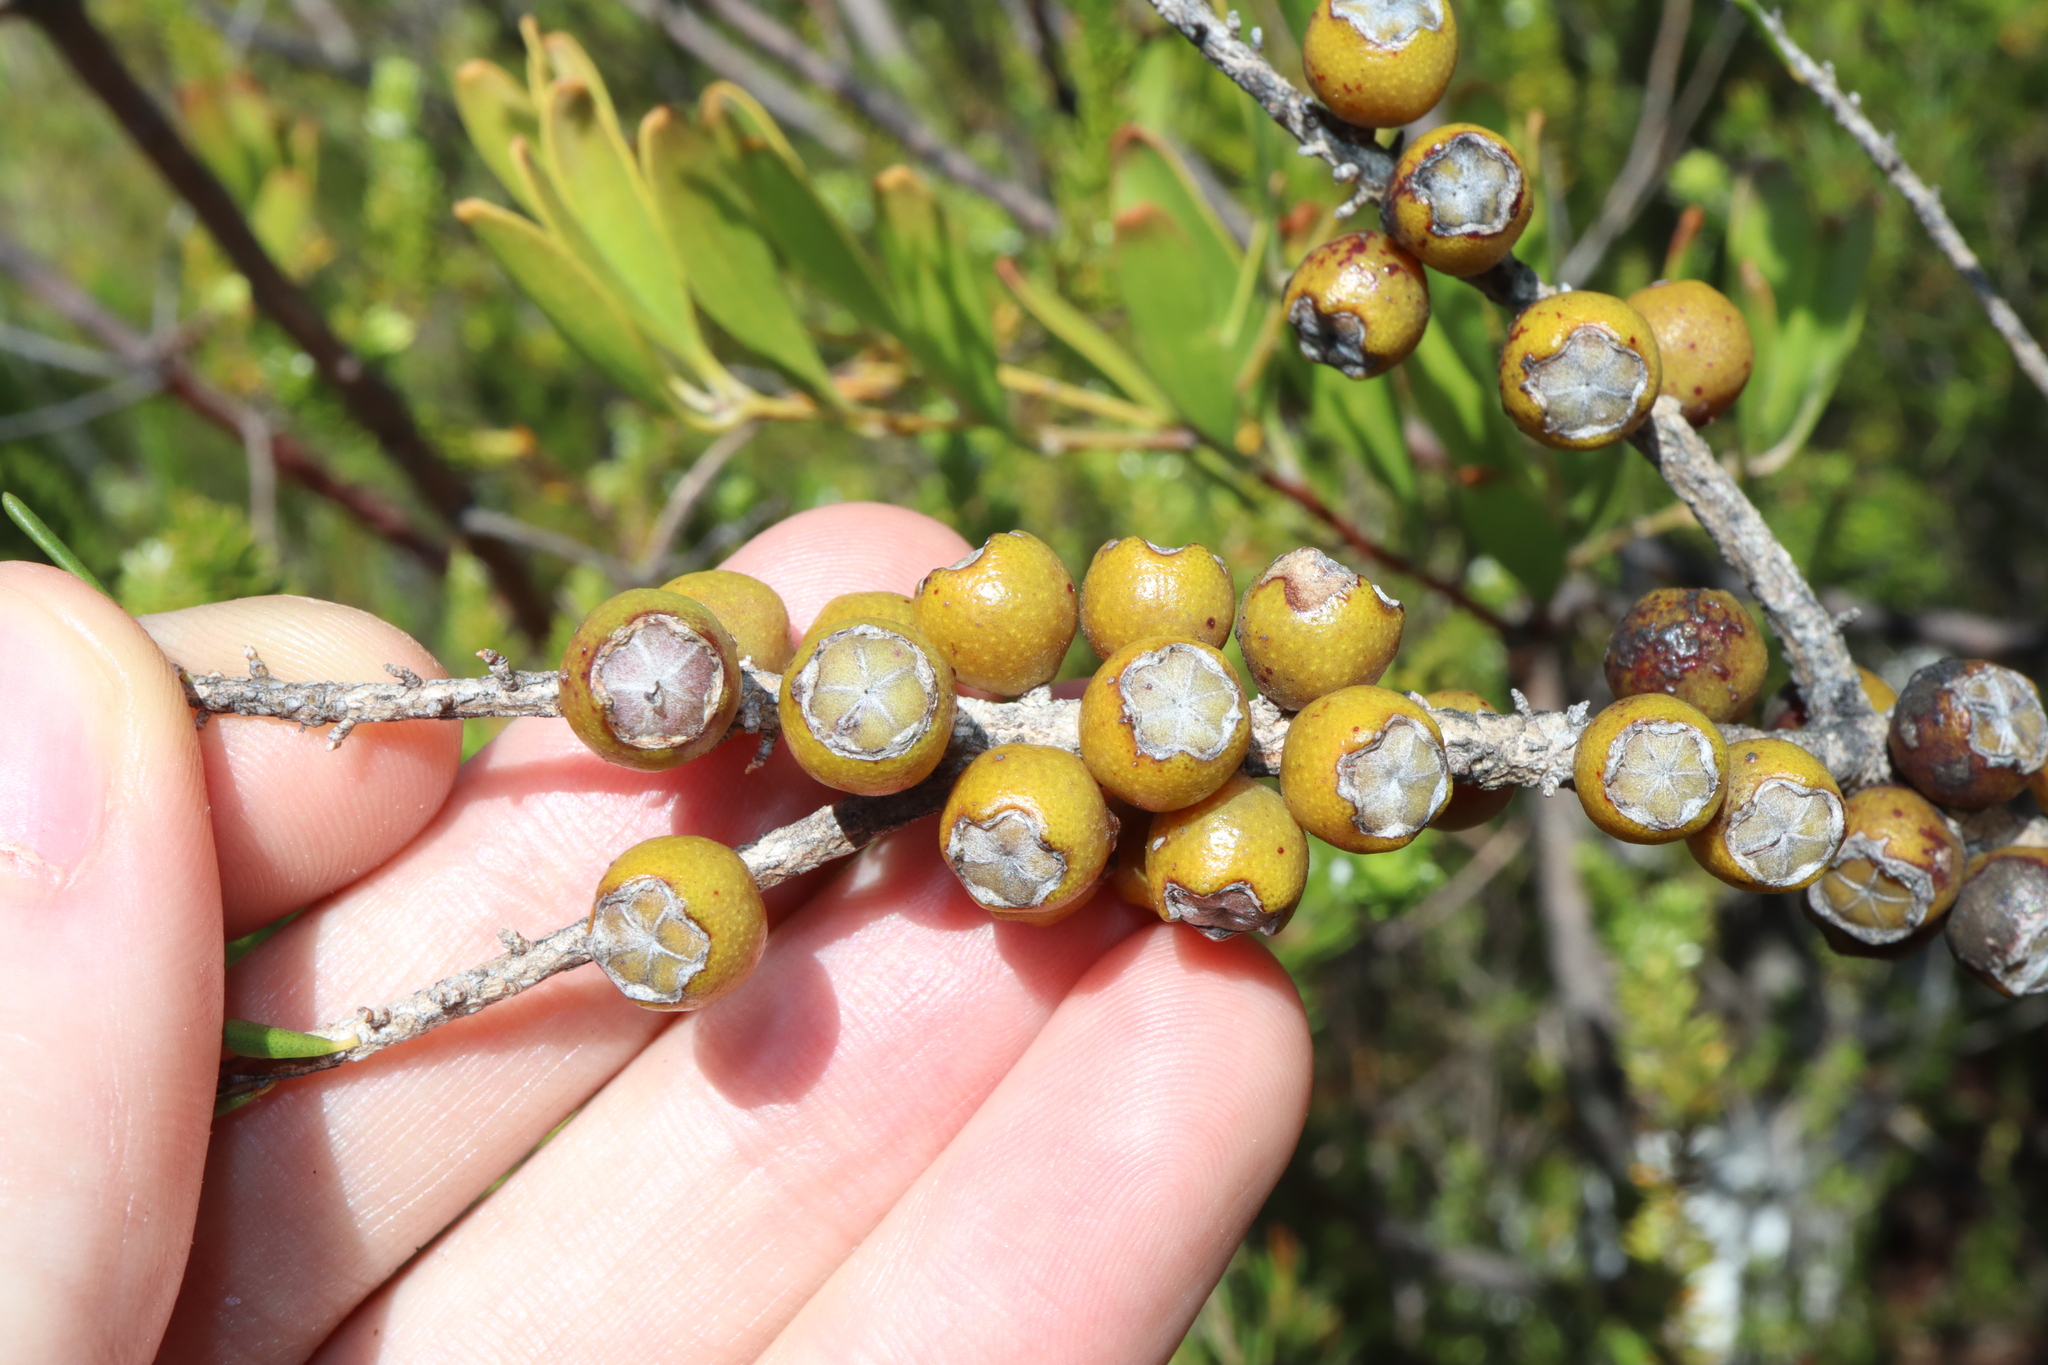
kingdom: Plantae
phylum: Tracheophyta
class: Magnoliopsida
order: Myrtales
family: Myrtaceae
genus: Melaleuca
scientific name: Melaleuca lutea
